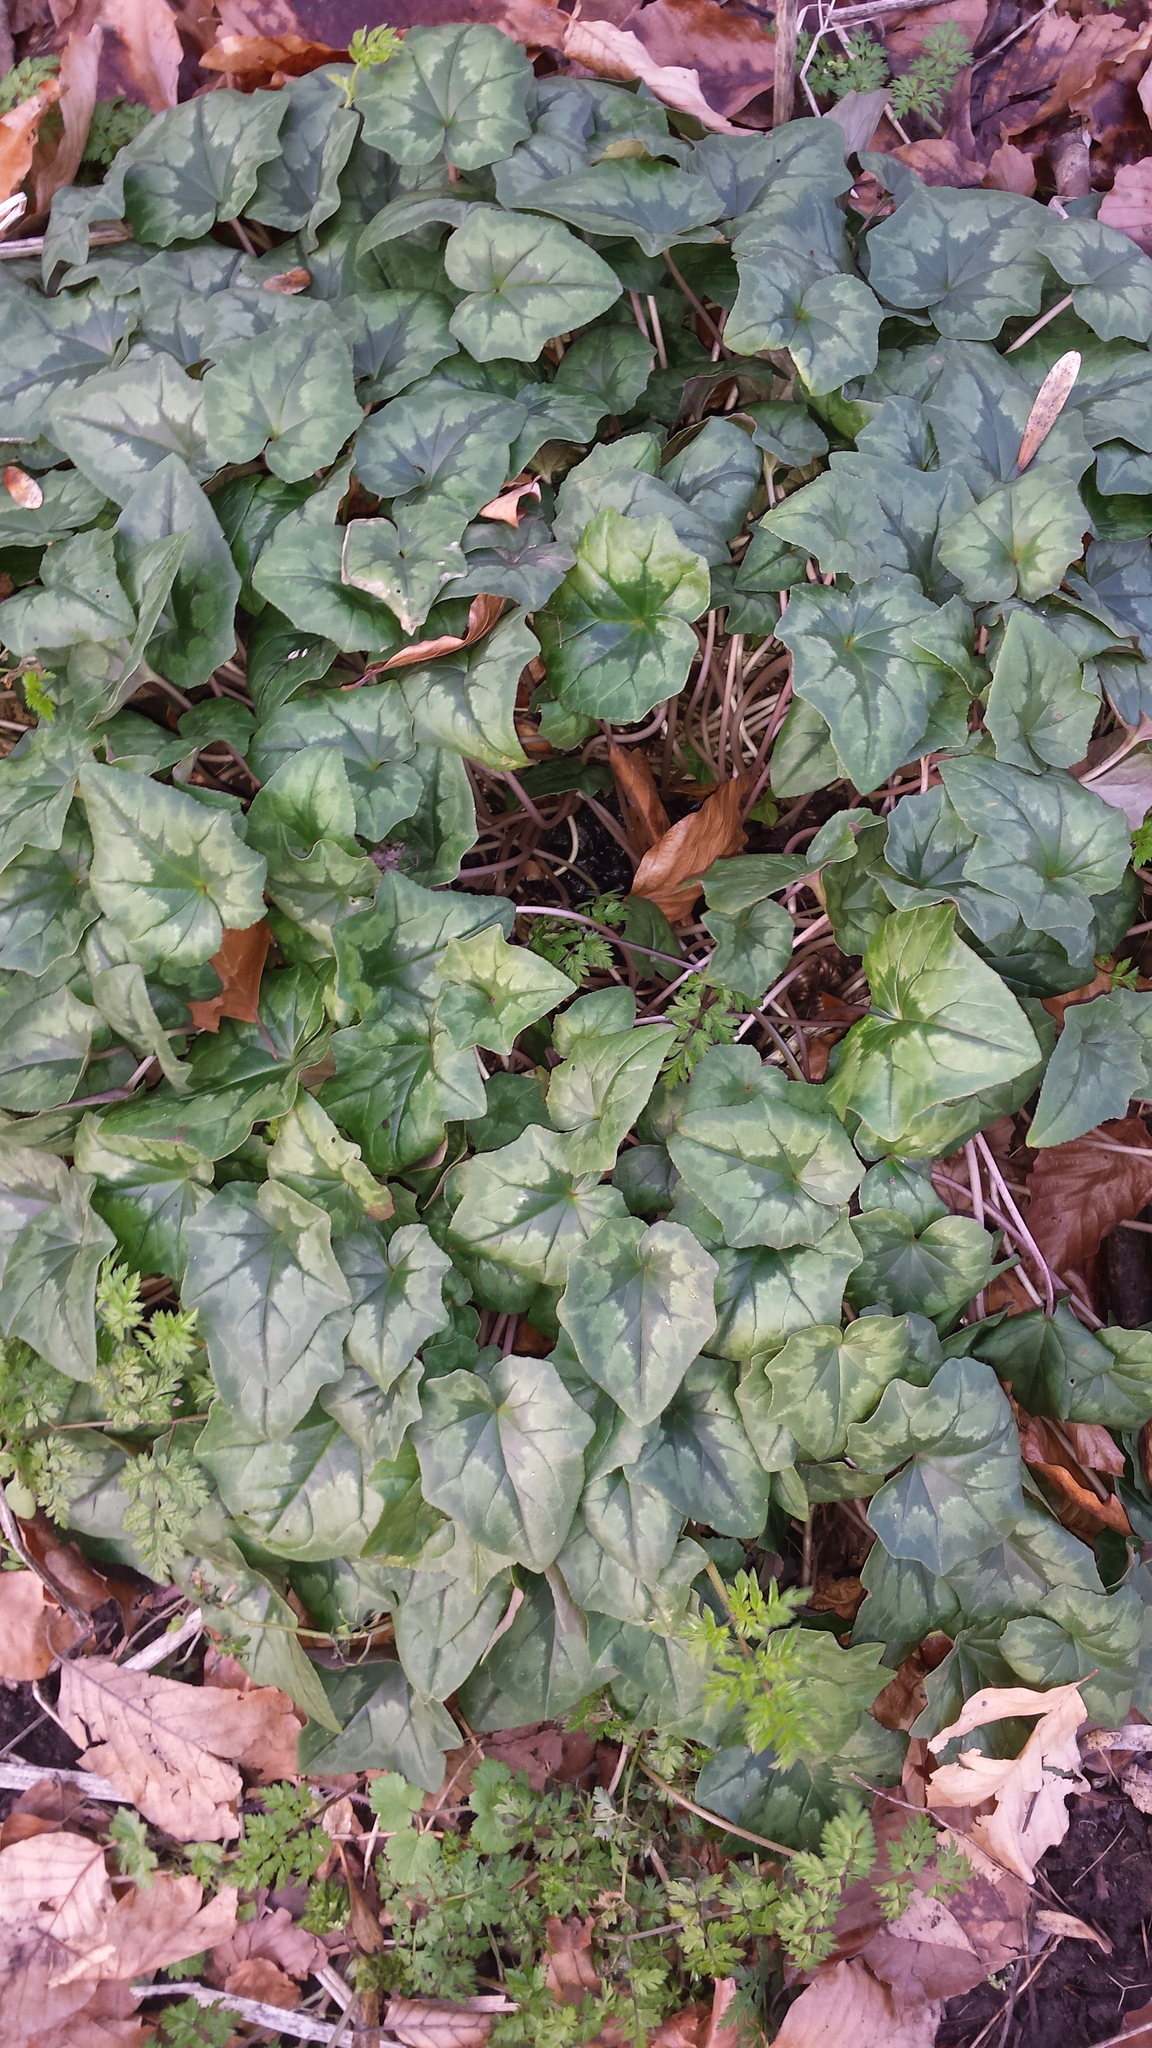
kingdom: Plantae
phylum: Tracheophyta
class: Magnoliopsida
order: Ericales
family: Primulaceae
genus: Cyclamen
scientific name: Cyclamen hederifolium
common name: Sowbread
